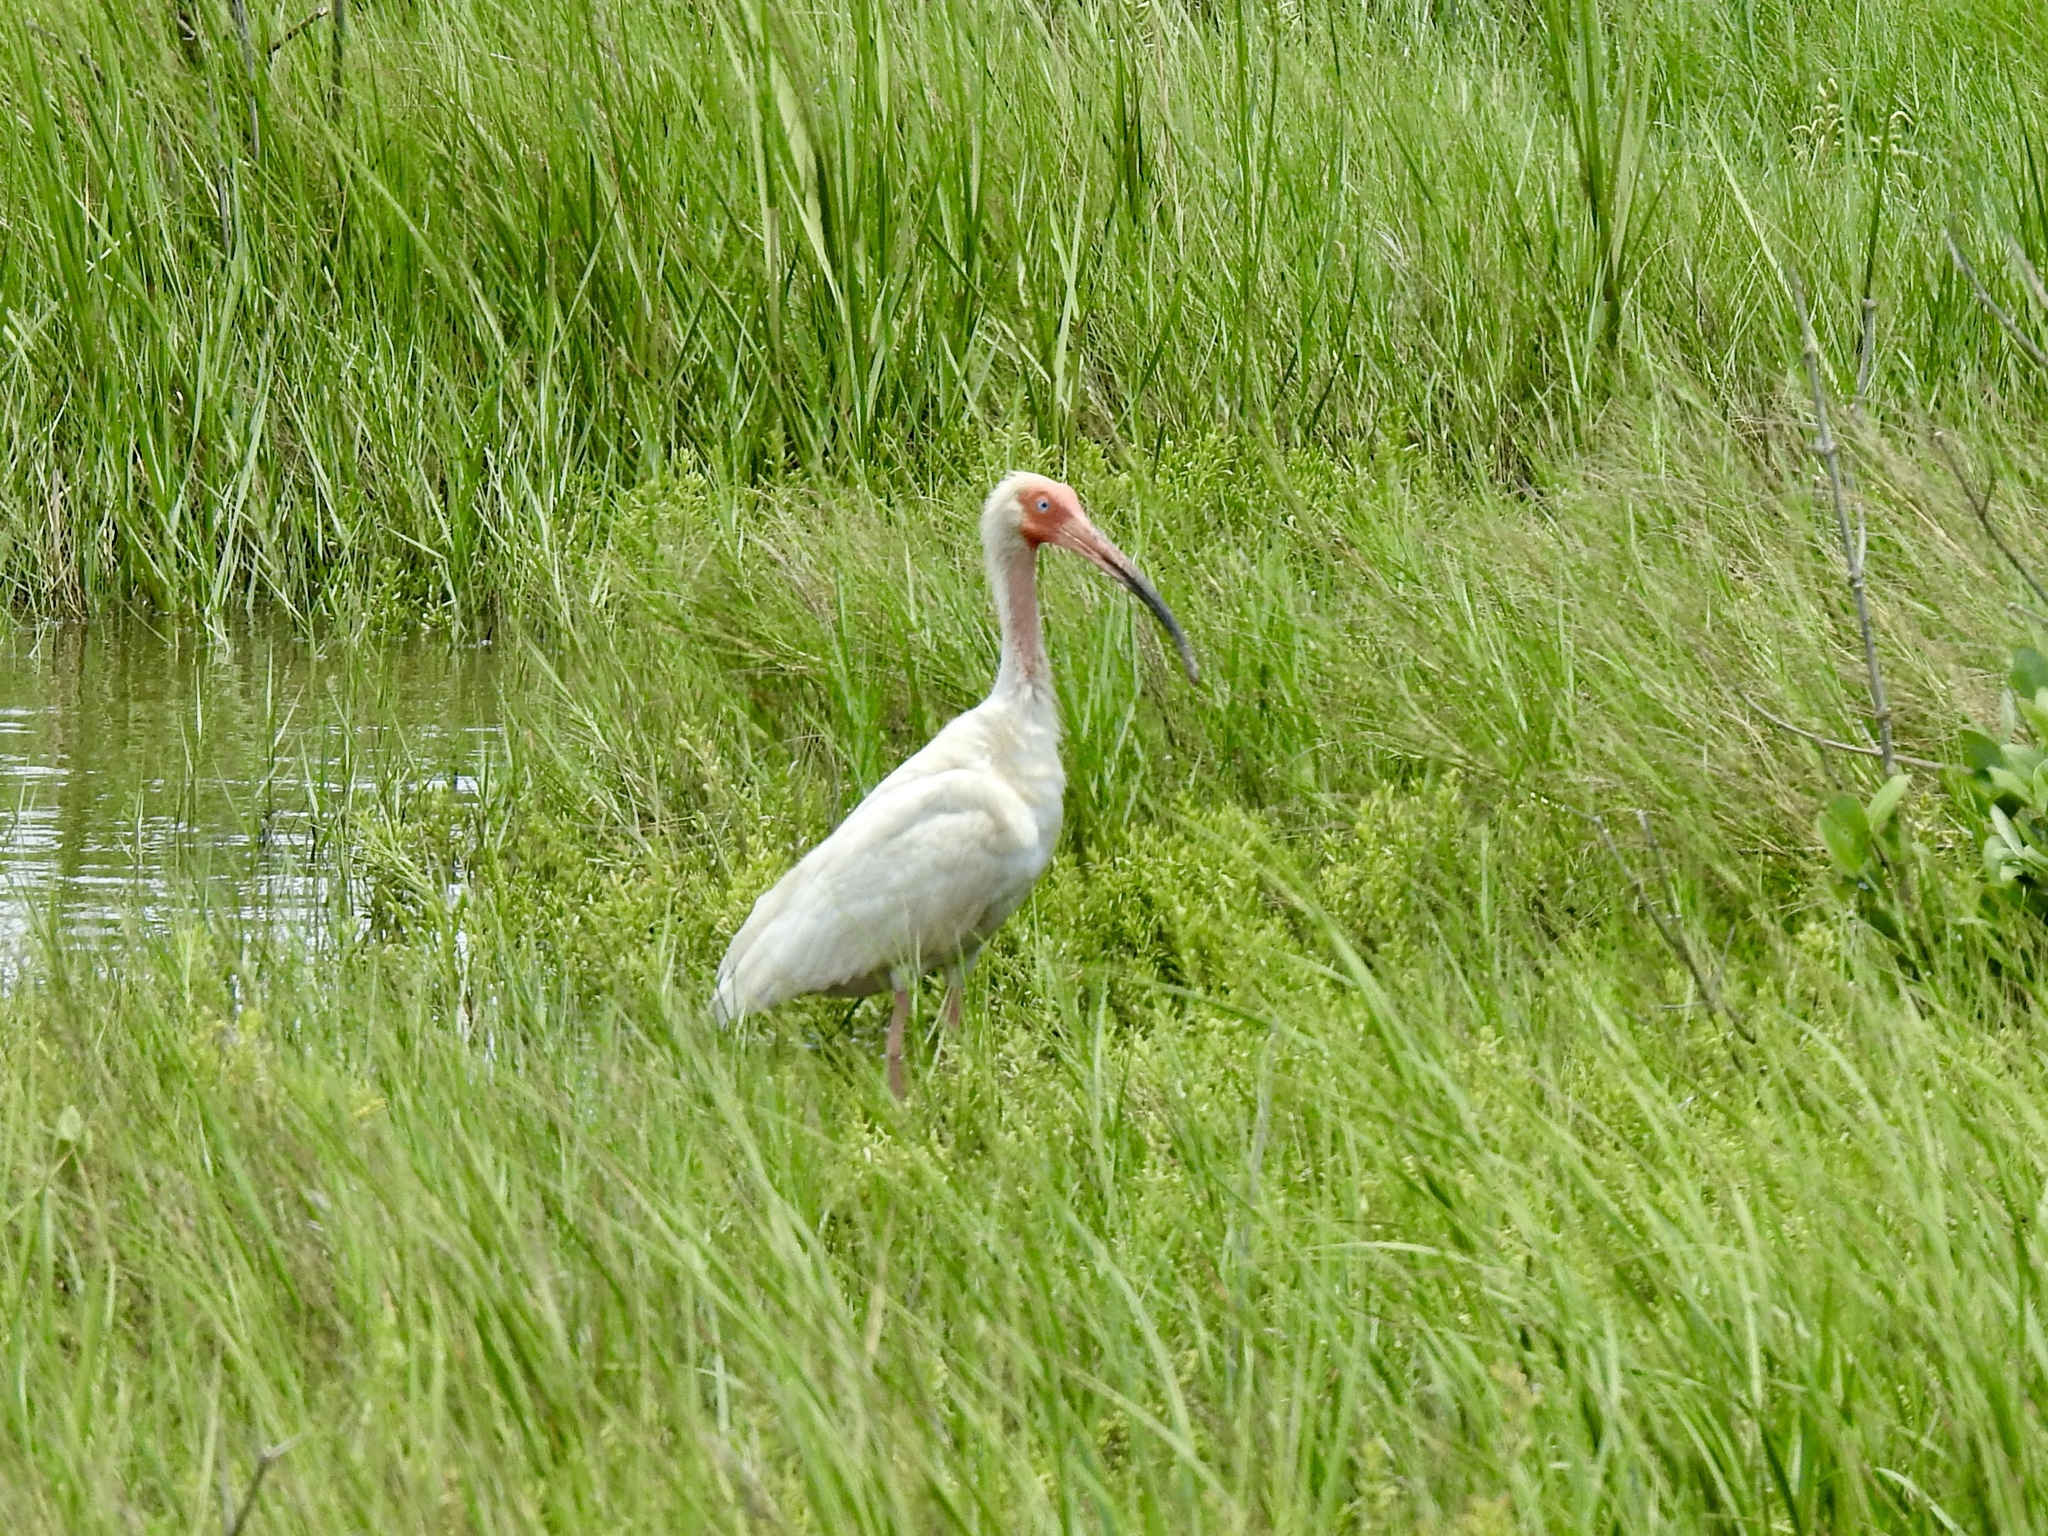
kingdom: Animalia
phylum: Chordata
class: Aves
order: Pelecaniformes
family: Threskiornithidae
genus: Eudocimus
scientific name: Eudocimus albus
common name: White ibis
